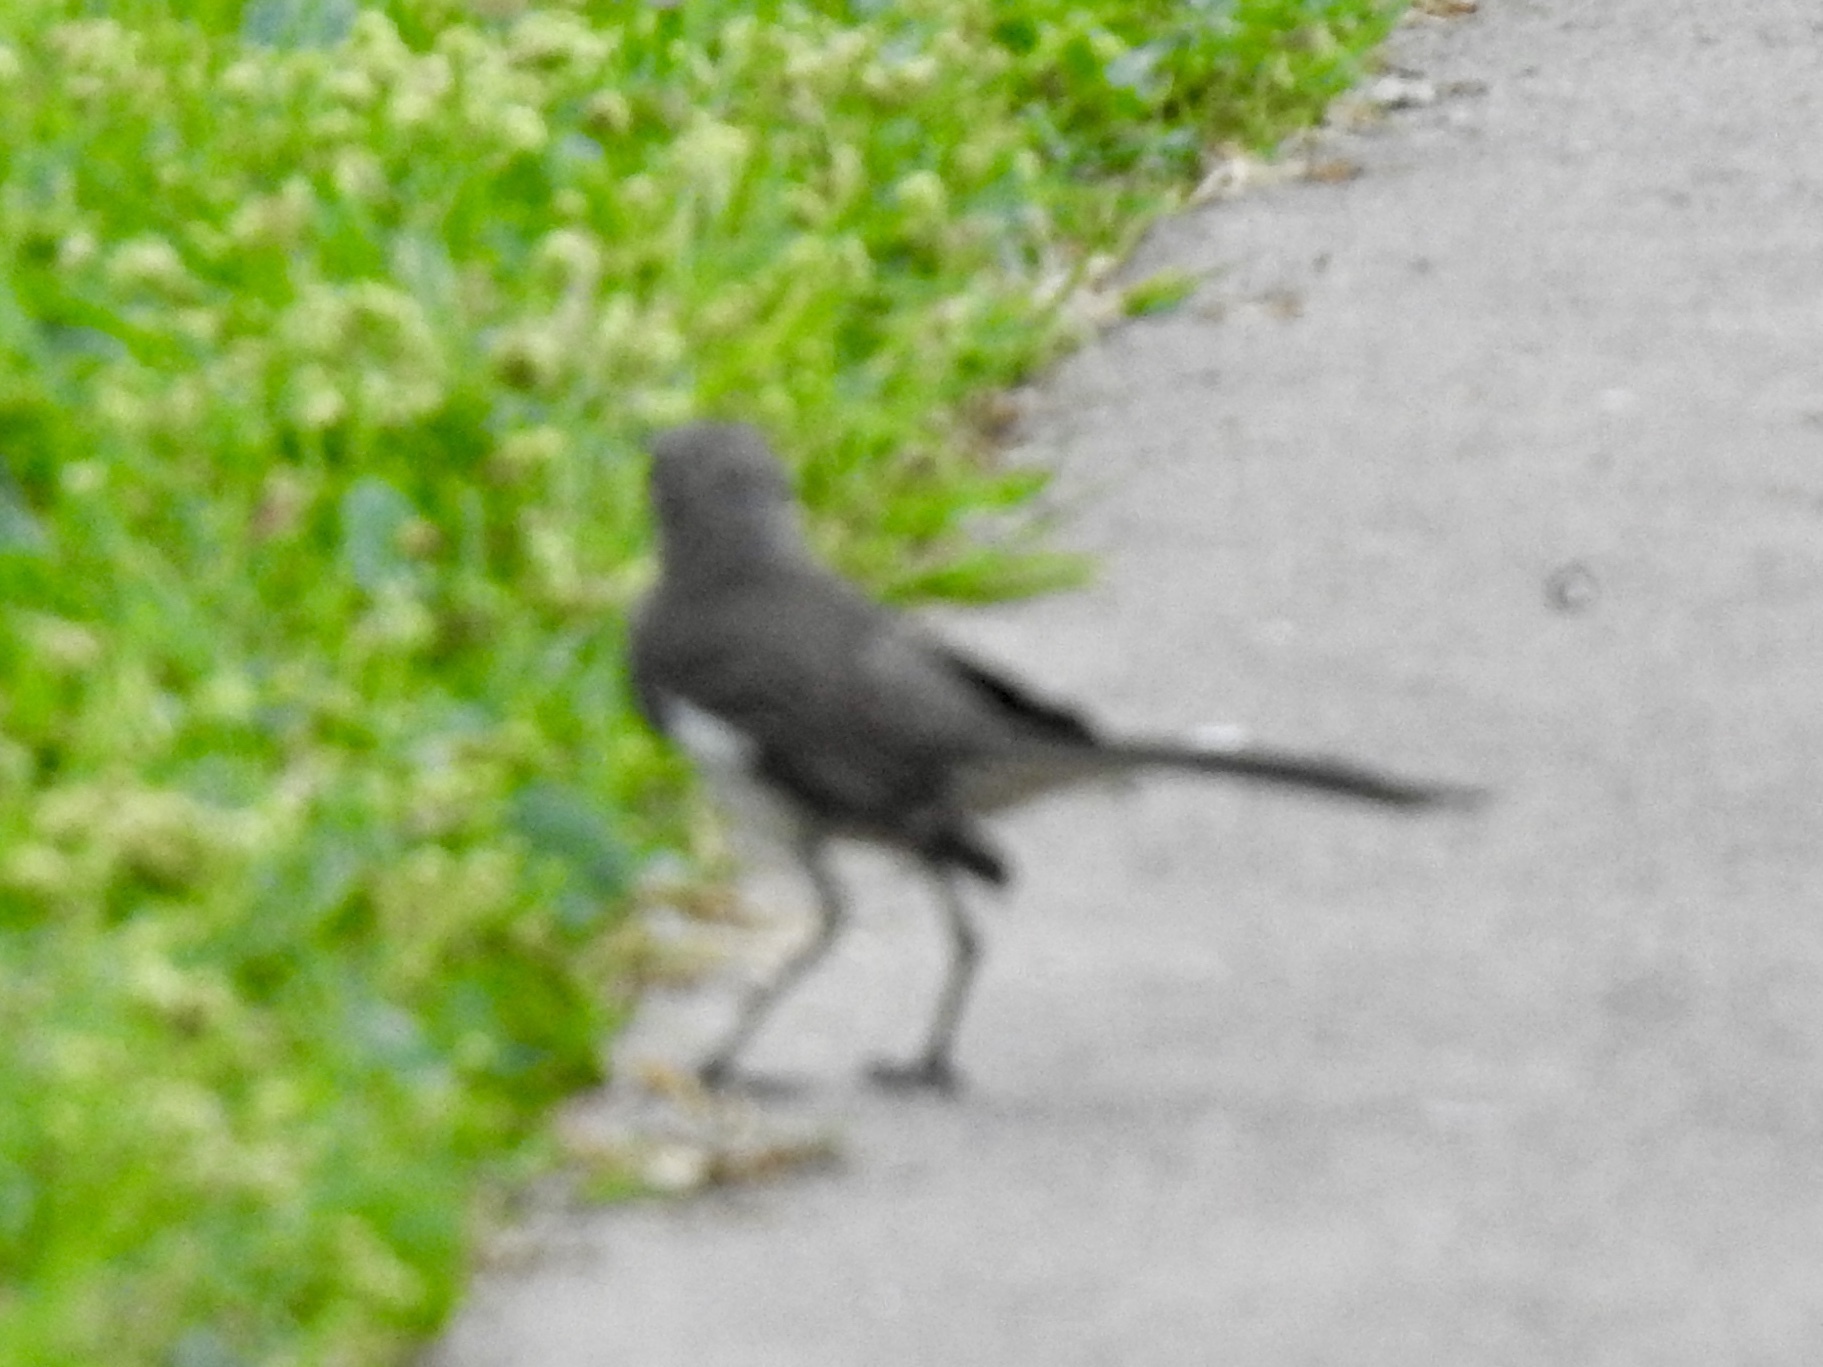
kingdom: Animalia
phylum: Chordata
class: Aves
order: Passeriformes
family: Mimidae
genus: Mimus
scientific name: Mimus polyglottos
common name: Northern mockingbird
